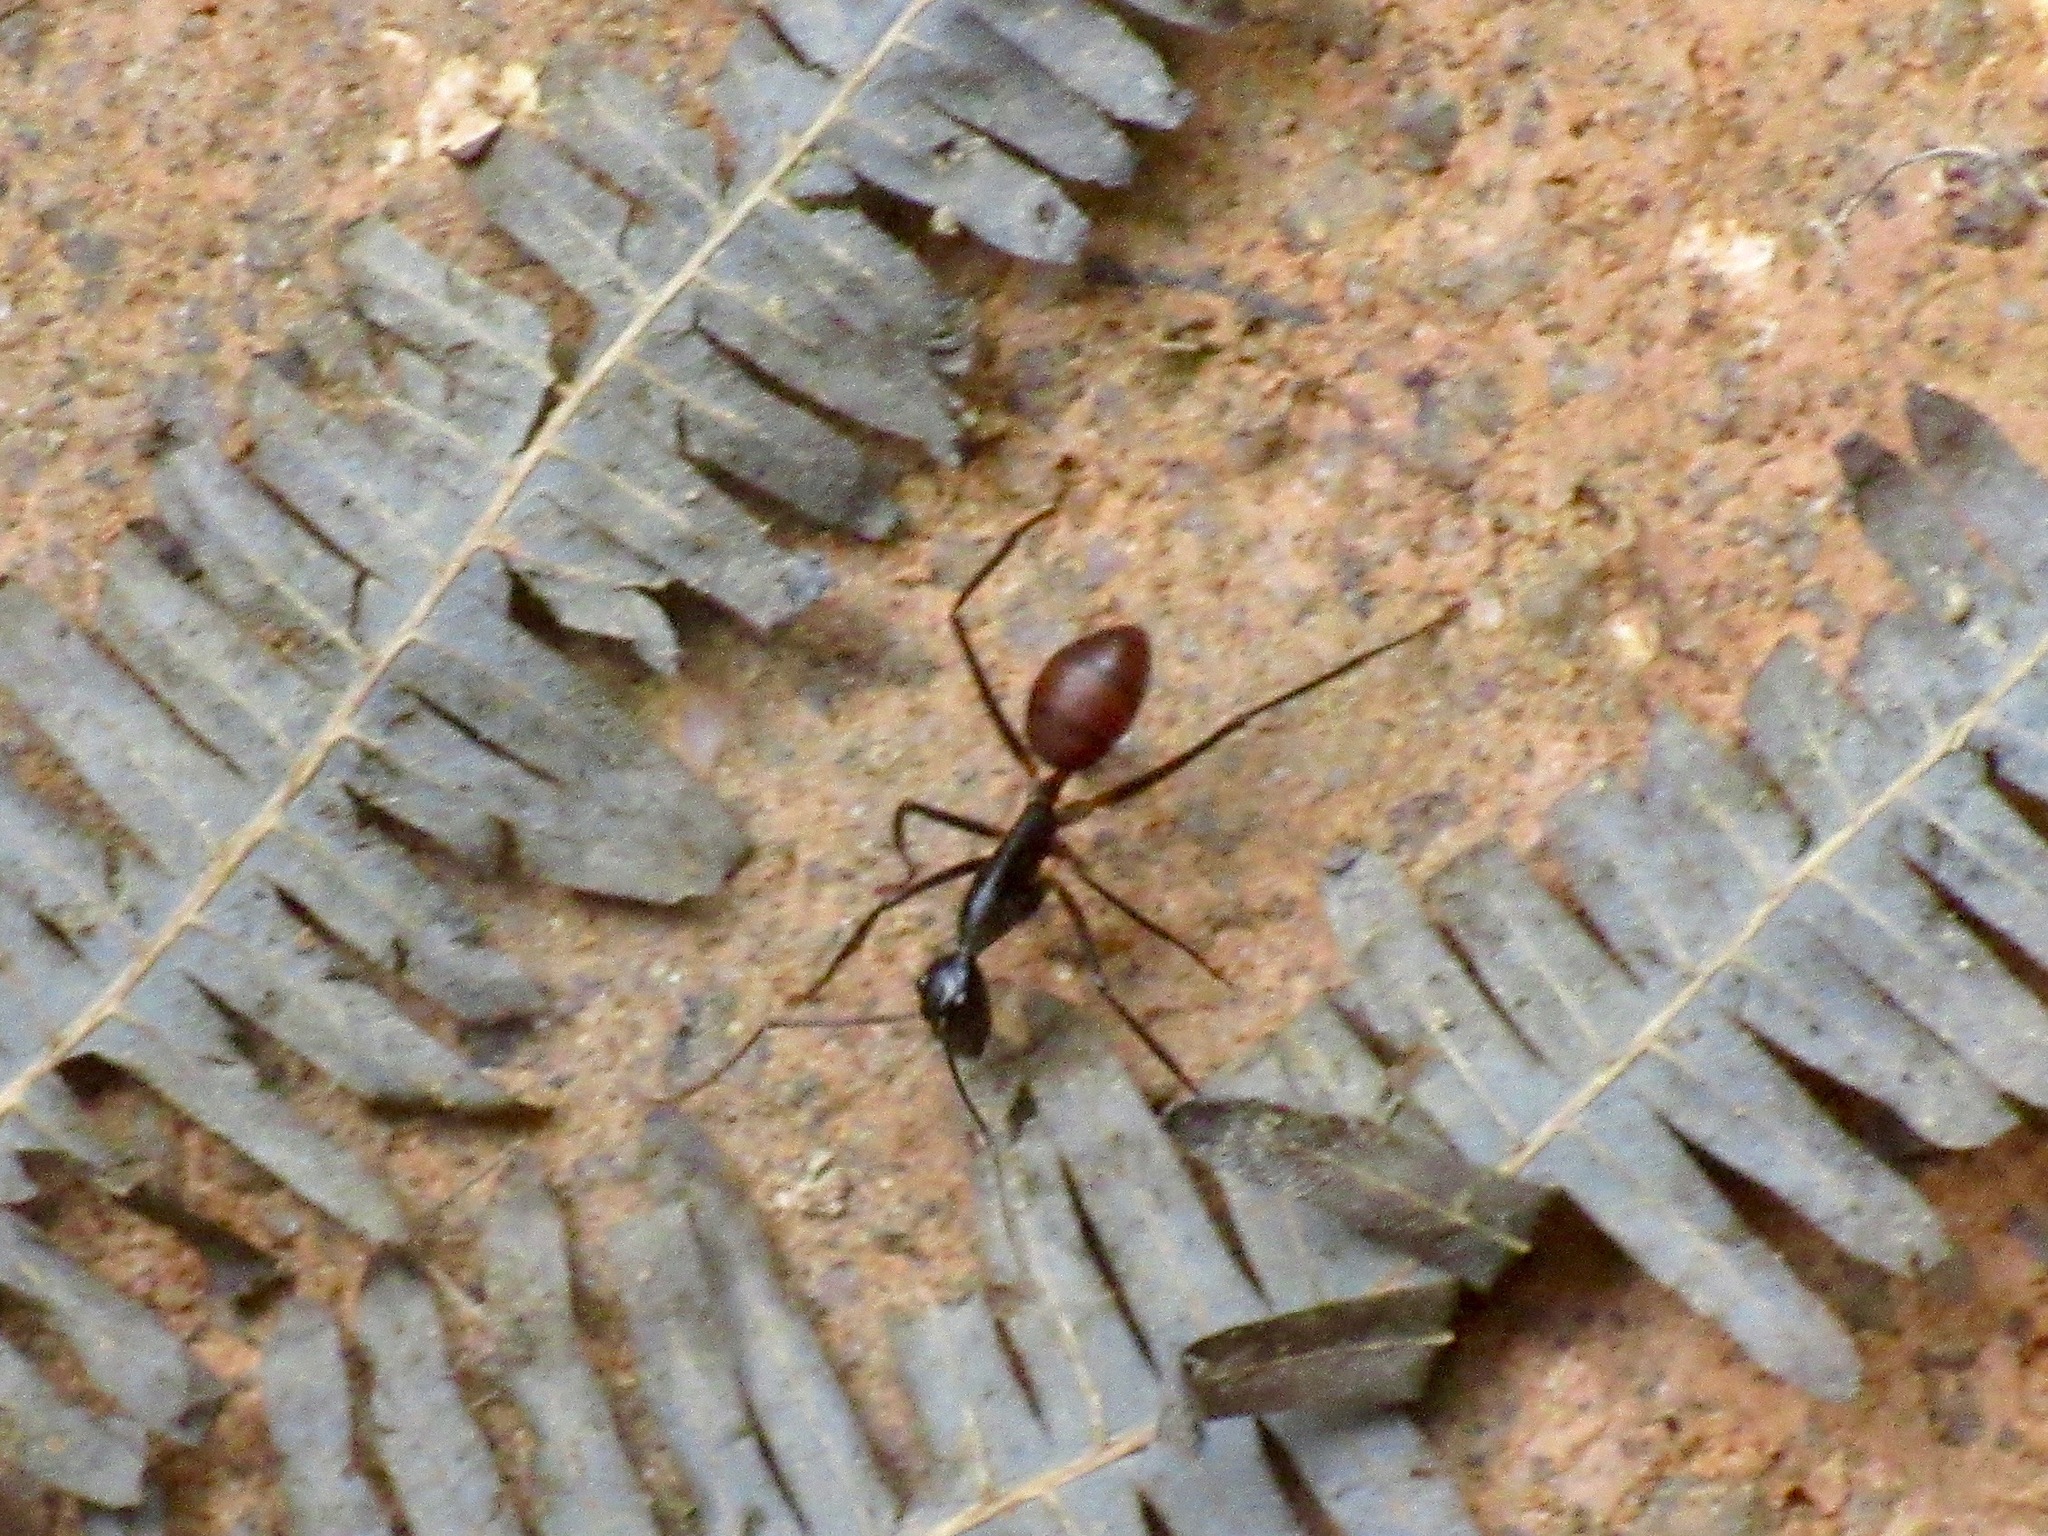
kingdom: Animalia
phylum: Arthropoda
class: Insecta
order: Hymenoptera
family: Formicidae
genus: Dinomyrmex
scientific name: Dinomyrmex
